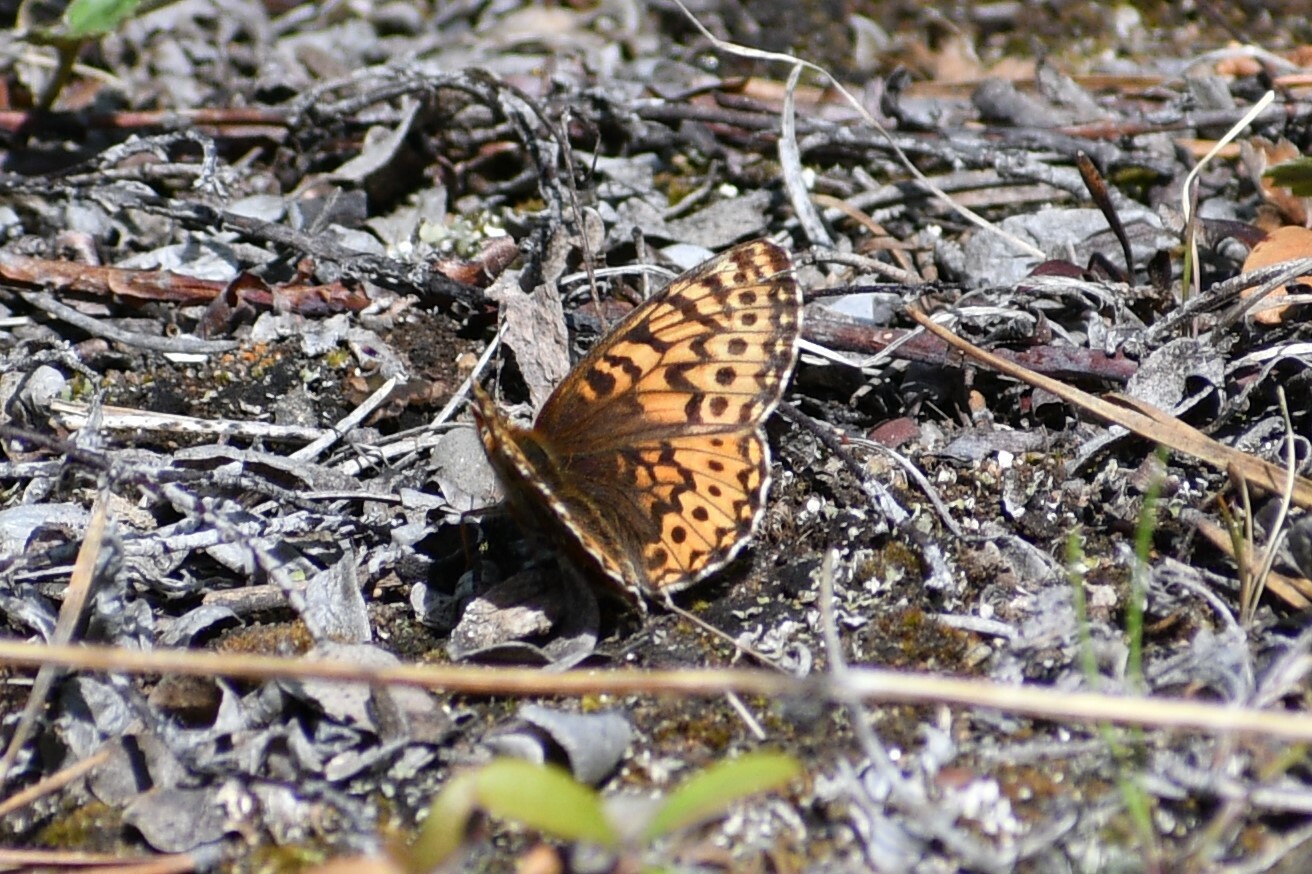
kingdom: Animalia
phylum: Arthropoda
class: Insecta
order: Lepidoptera
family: Nymphalidae
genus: Boloria
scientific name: Boloria freija
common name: Freija fritillary
